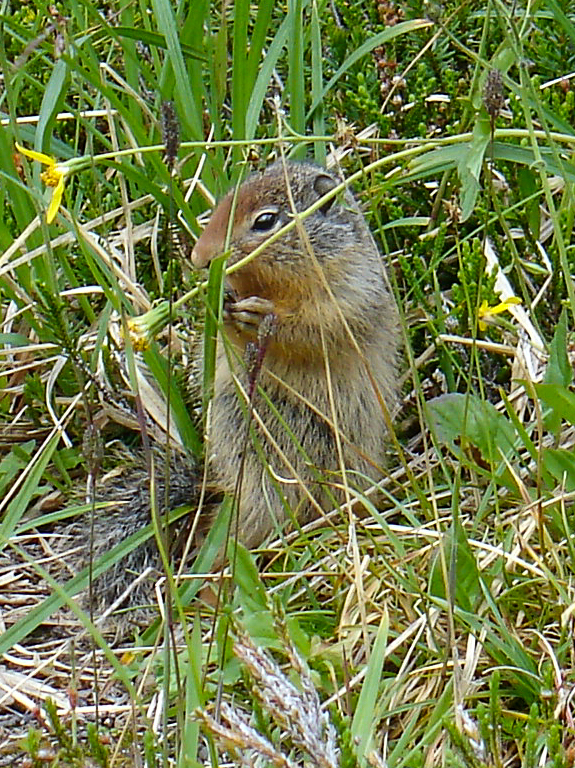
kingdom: Animalia
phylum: Chordata
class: Mammalia
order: Rodentia
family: Sciuridae
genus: Urocitellus
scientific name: Urocitellus columbianus
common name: Columbian ground squirrel
